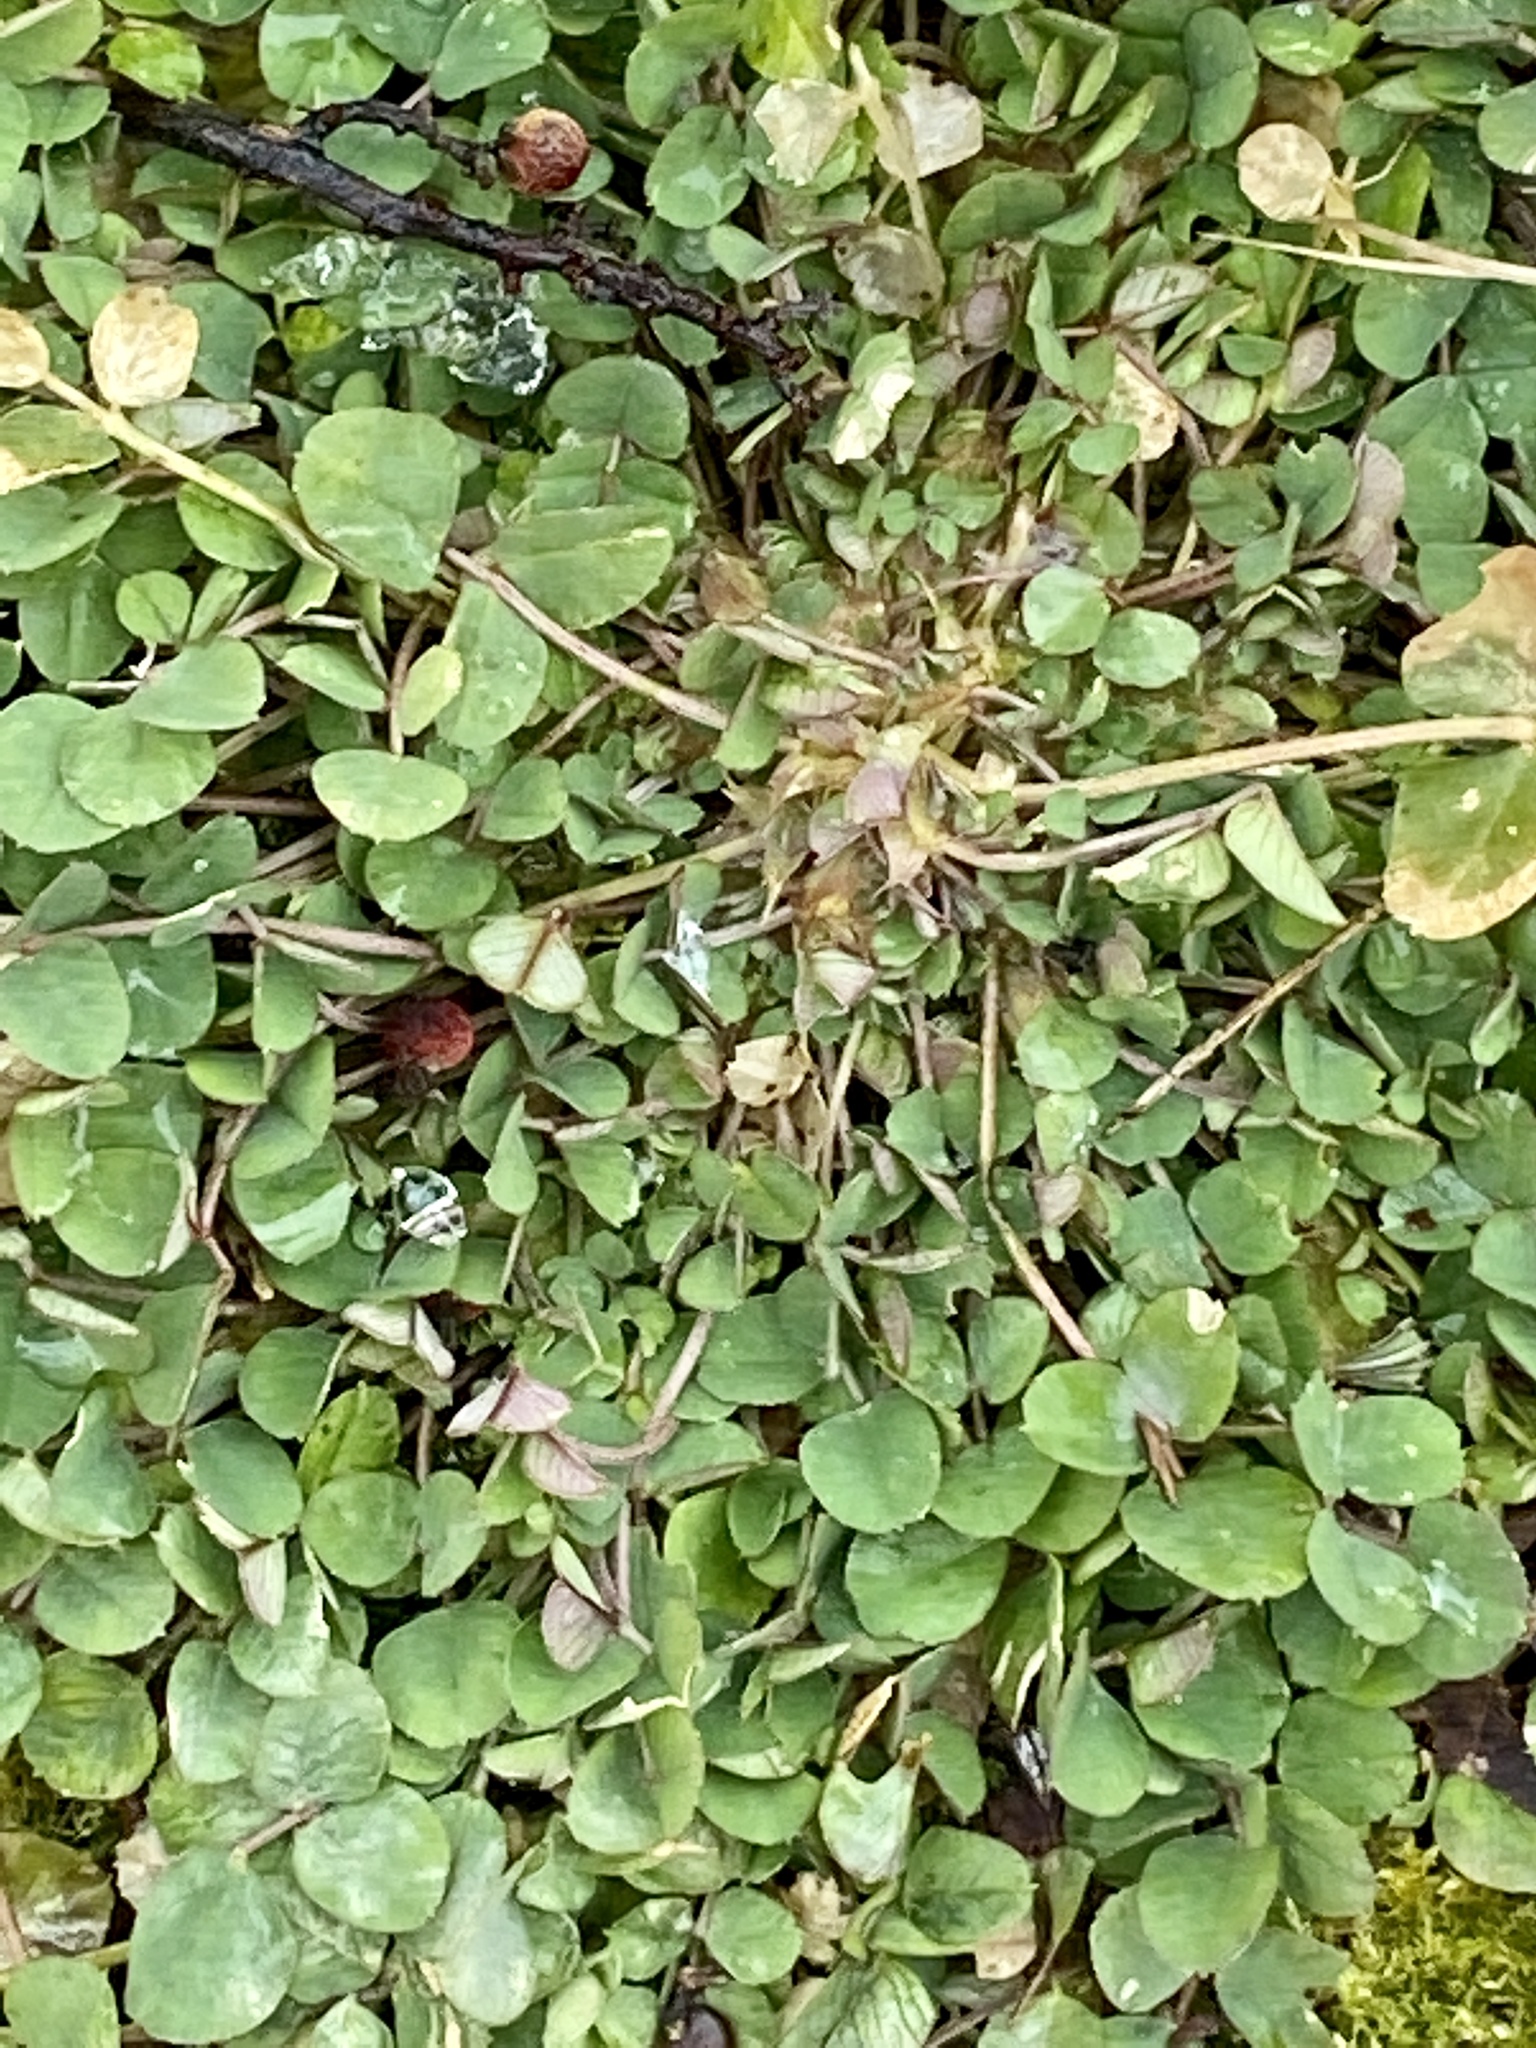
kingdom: Plantae
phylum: Tracheophyta
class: Magnoliopsida
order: Fabales
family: Fabaceae
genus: Medicago
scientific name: Medicago lupulina
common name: Black medick
